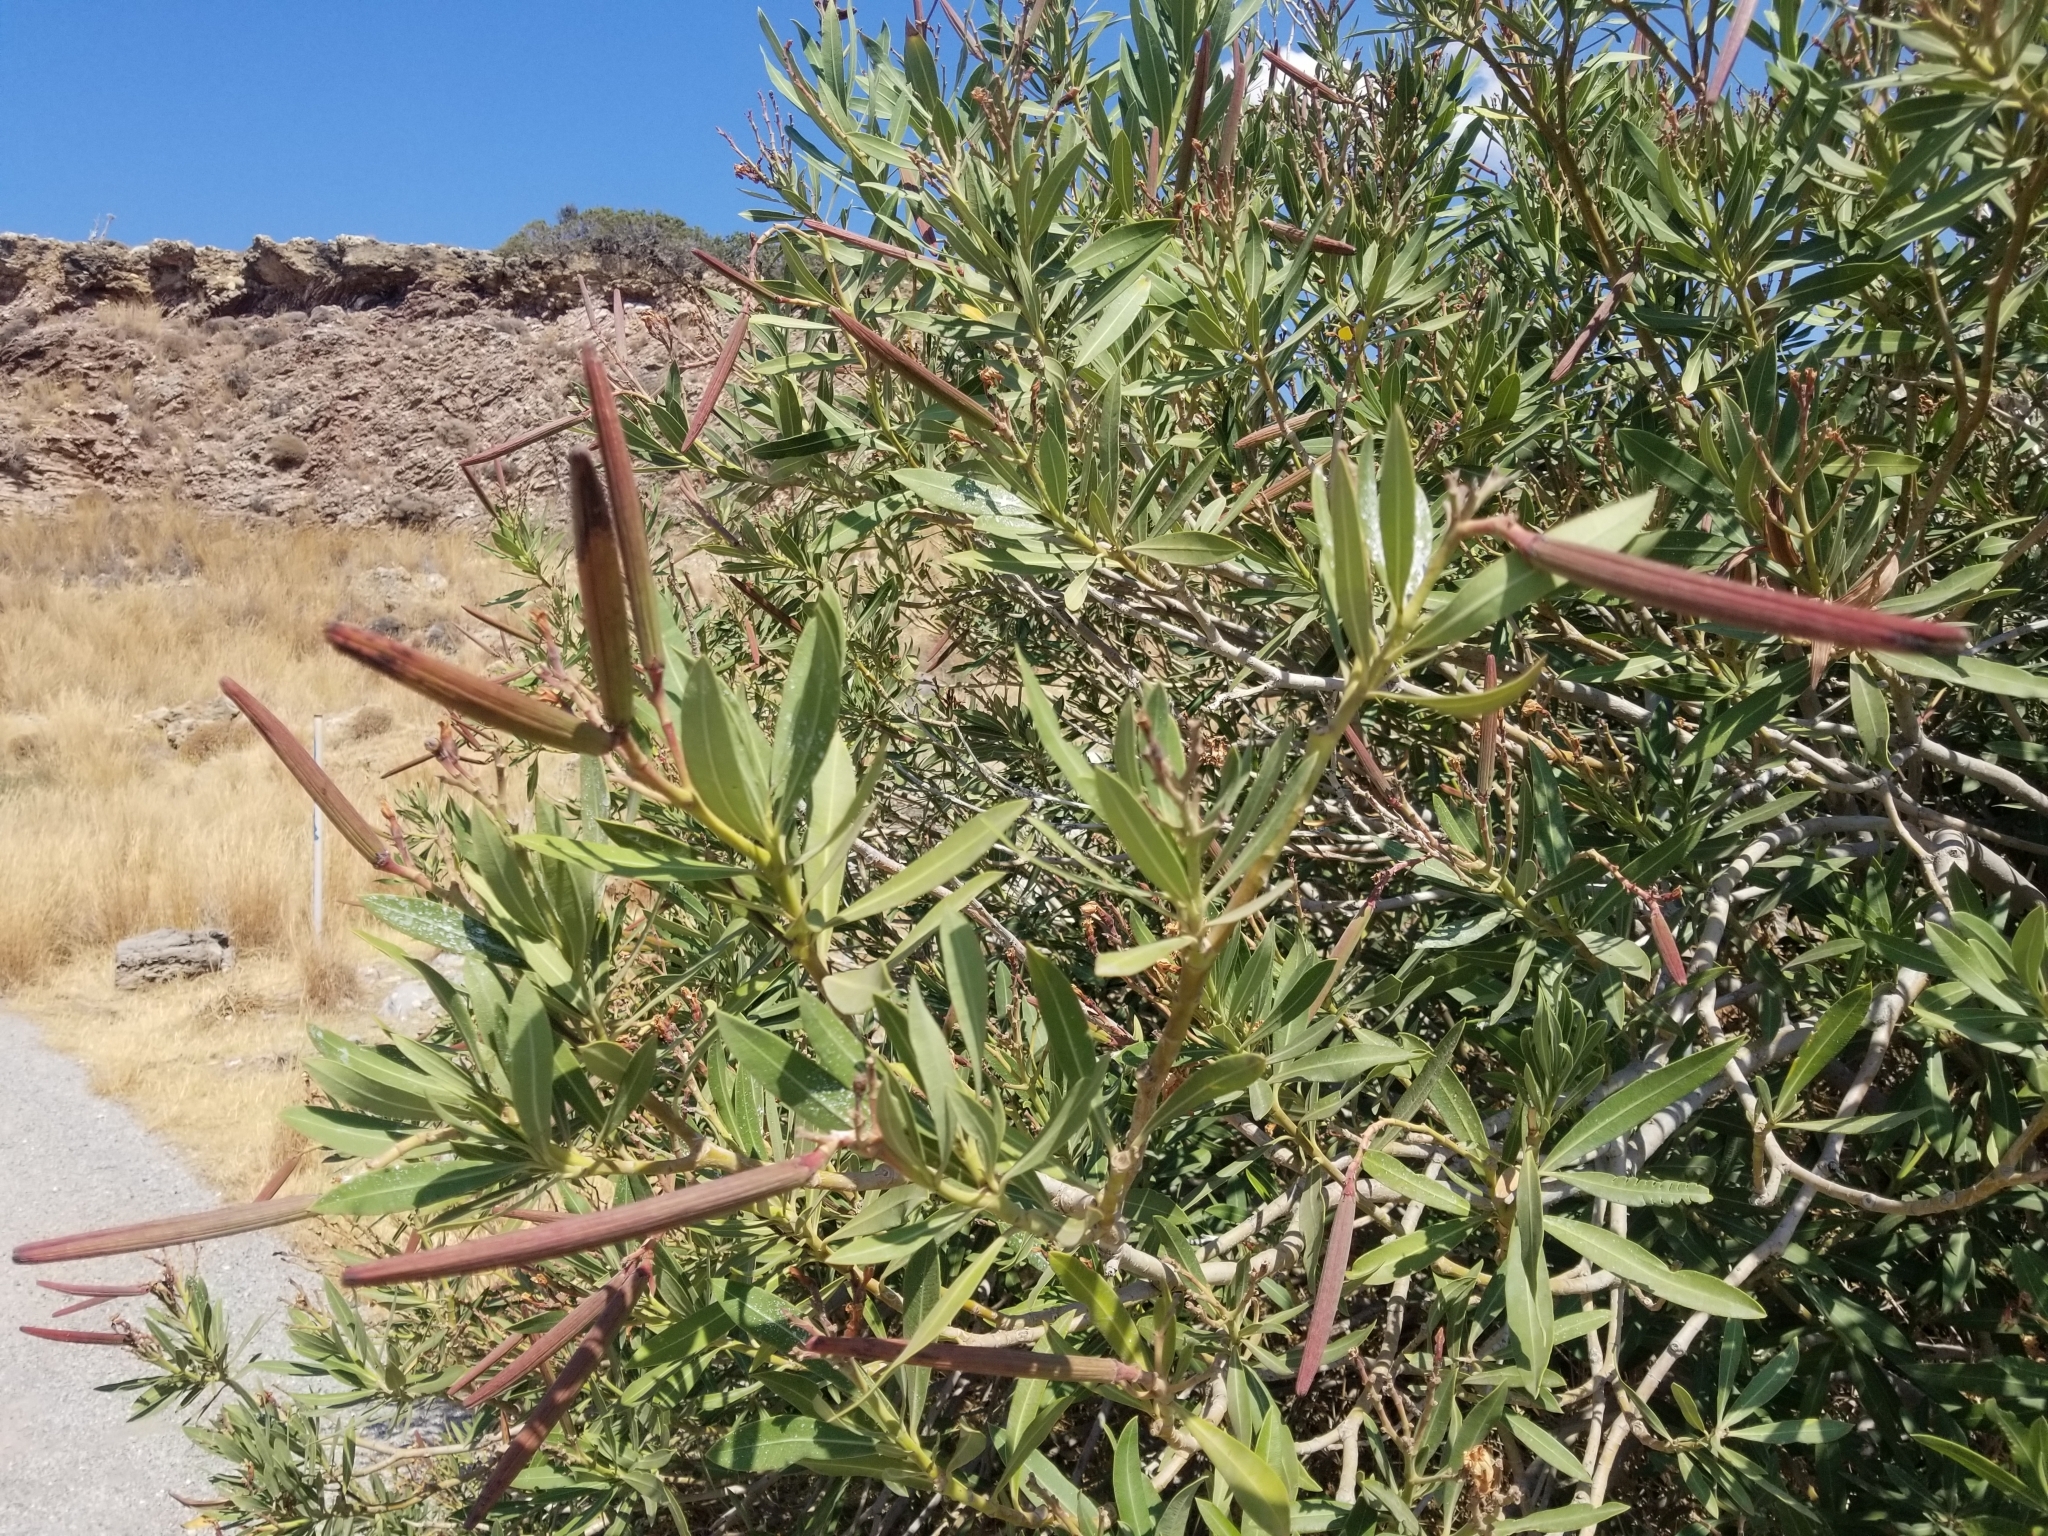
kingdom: Plantae
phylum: Tracheophyta
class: Magnoliopsida
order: Gentianales
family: Apocynaceae
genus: Nerium
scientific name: Nerium oleander
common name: Oleander
